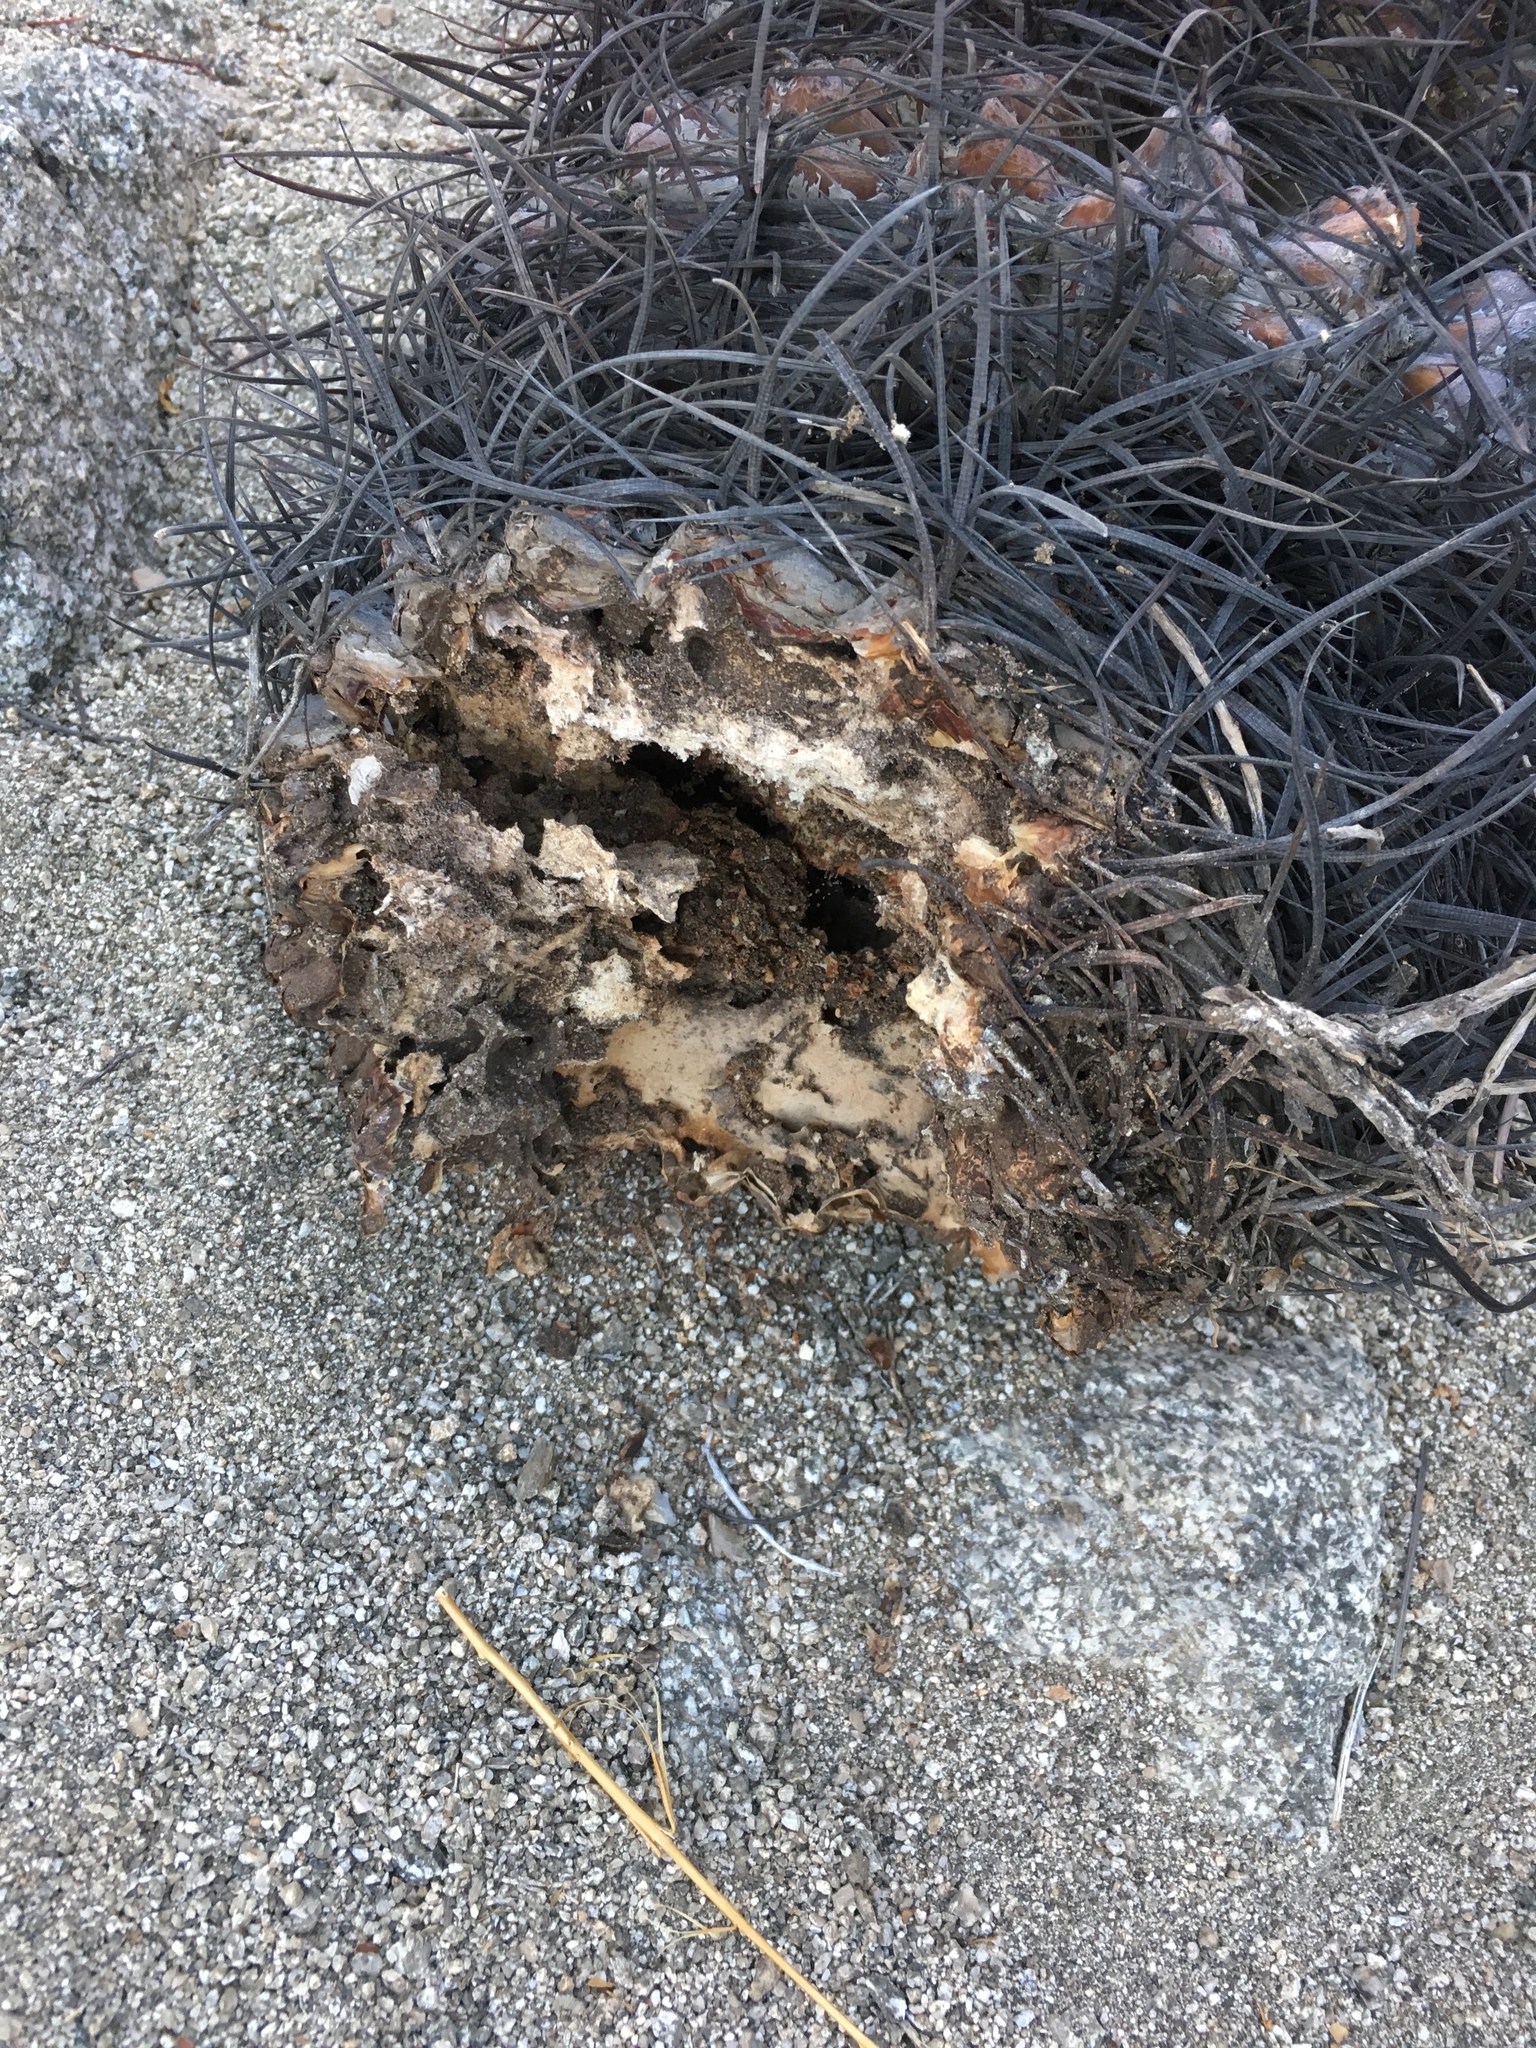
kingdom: Plantae
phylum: Tracheophyta
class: Magnoliopsida
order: Caryophyllales
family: Cactaceae
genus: Ferocactus
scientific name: Ferocactus cylindraceus
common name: California barrel cactus
